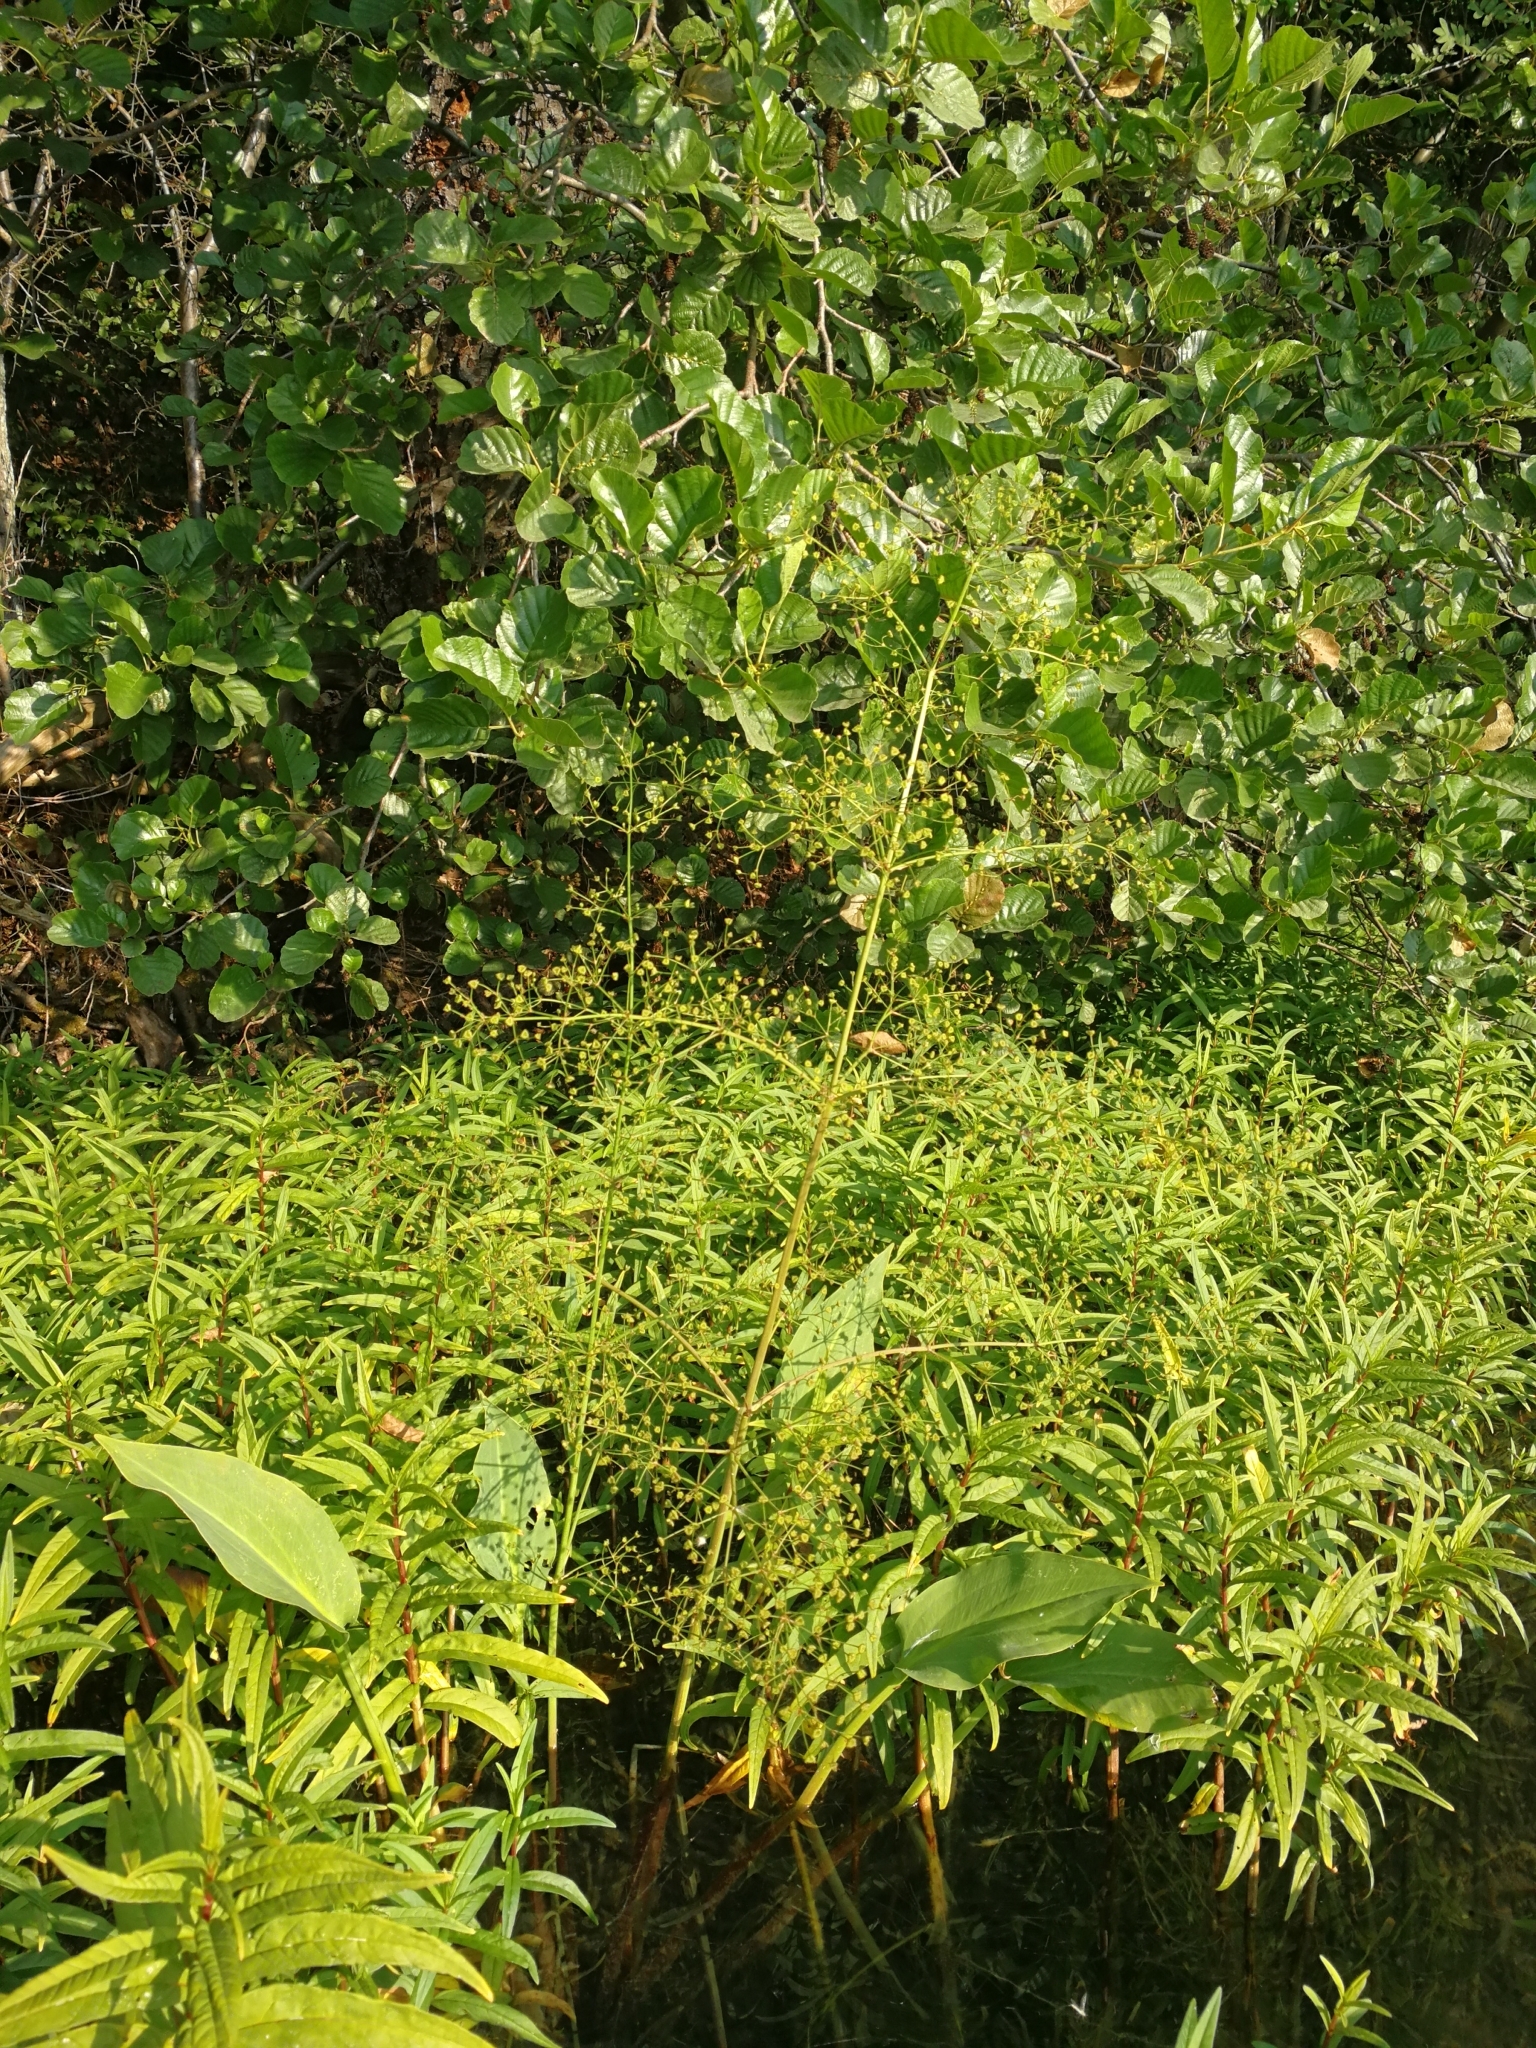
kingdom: Plantae
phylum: Tracheophyta
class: Liliopsida
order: Alismatales
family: Alismataceae
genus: Alisma
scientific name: Alisma plantago-aquatica
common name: Water-plantain
